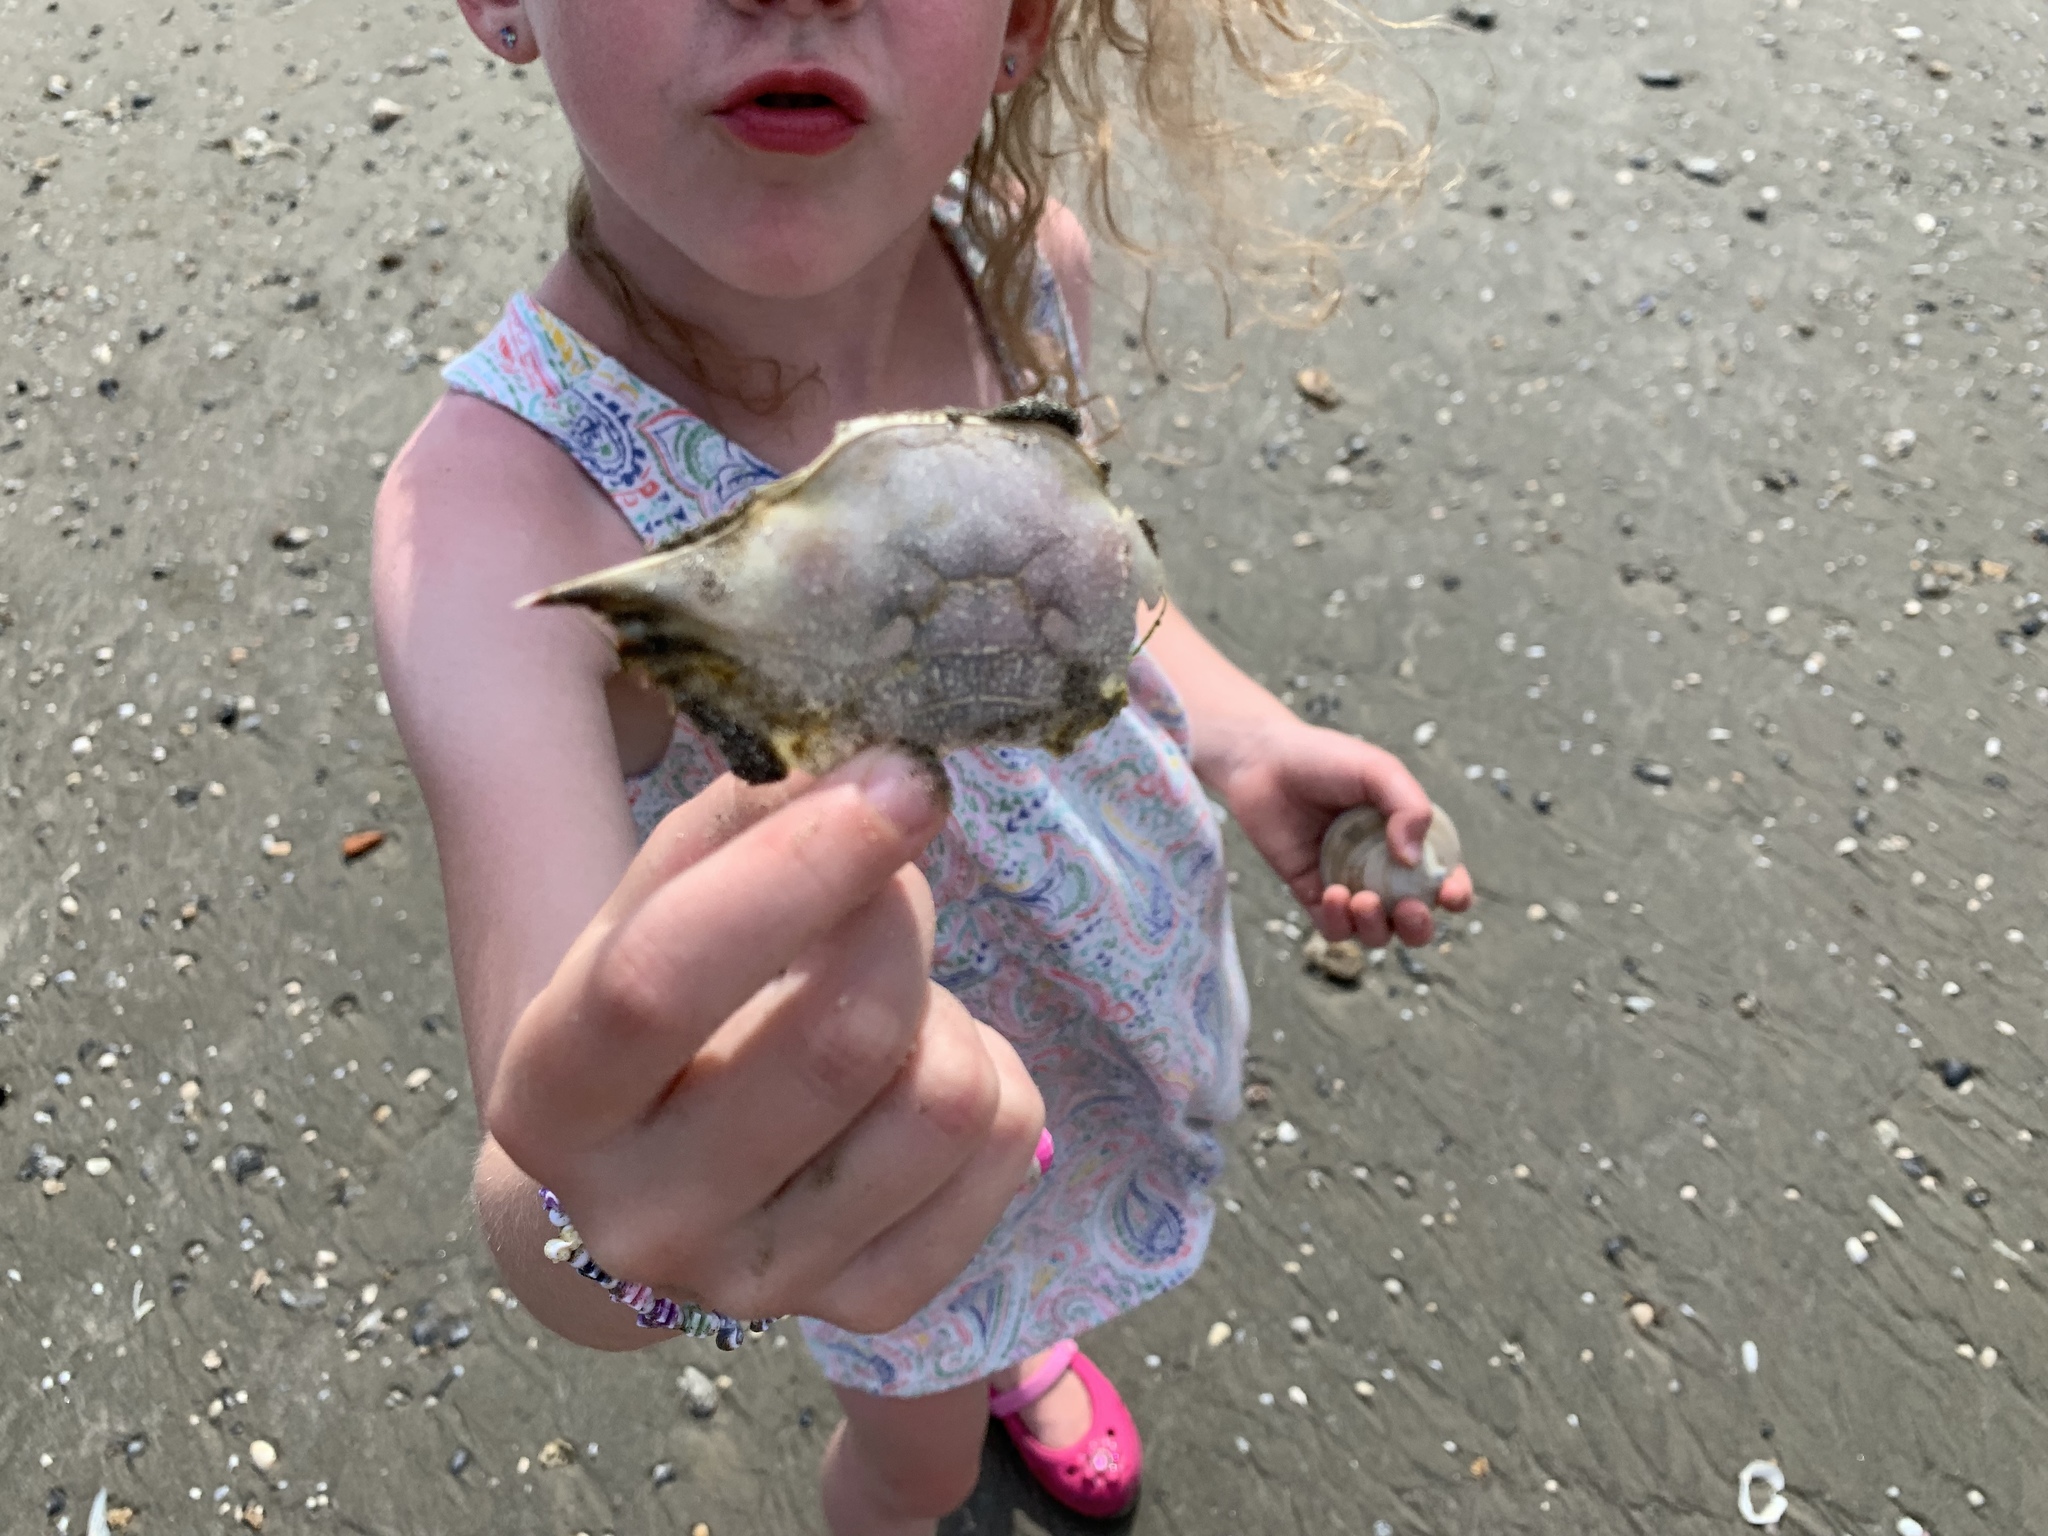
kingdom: Animalia
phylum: Arthropoda
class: Malacostraca
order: Decapoda
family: Portunidae
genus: Callinectes
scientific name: Callinectes sapidus
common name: Blue crab
